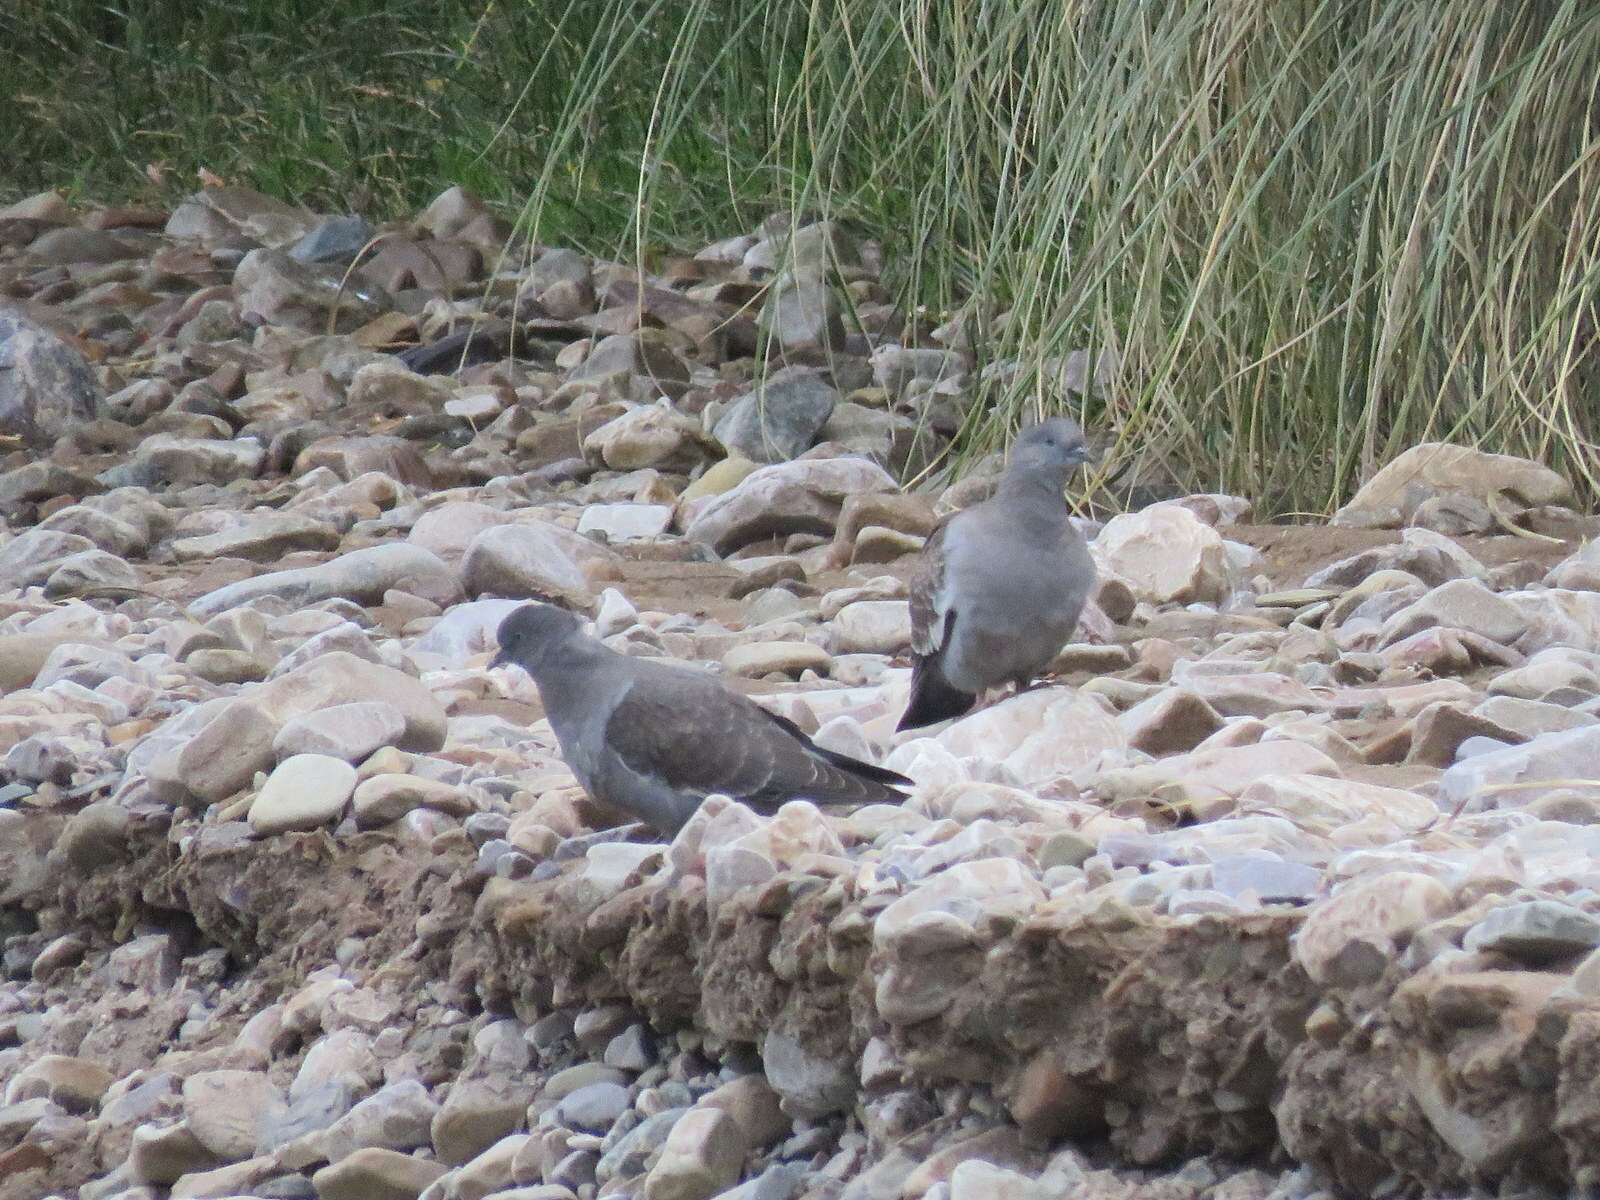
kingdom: Animalia
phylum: Chordata
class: Aves
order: Columbiformes
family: Columbidae
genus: Patagioenas
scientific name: Patagioenas maculosa
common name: Spot-winged pigeon
